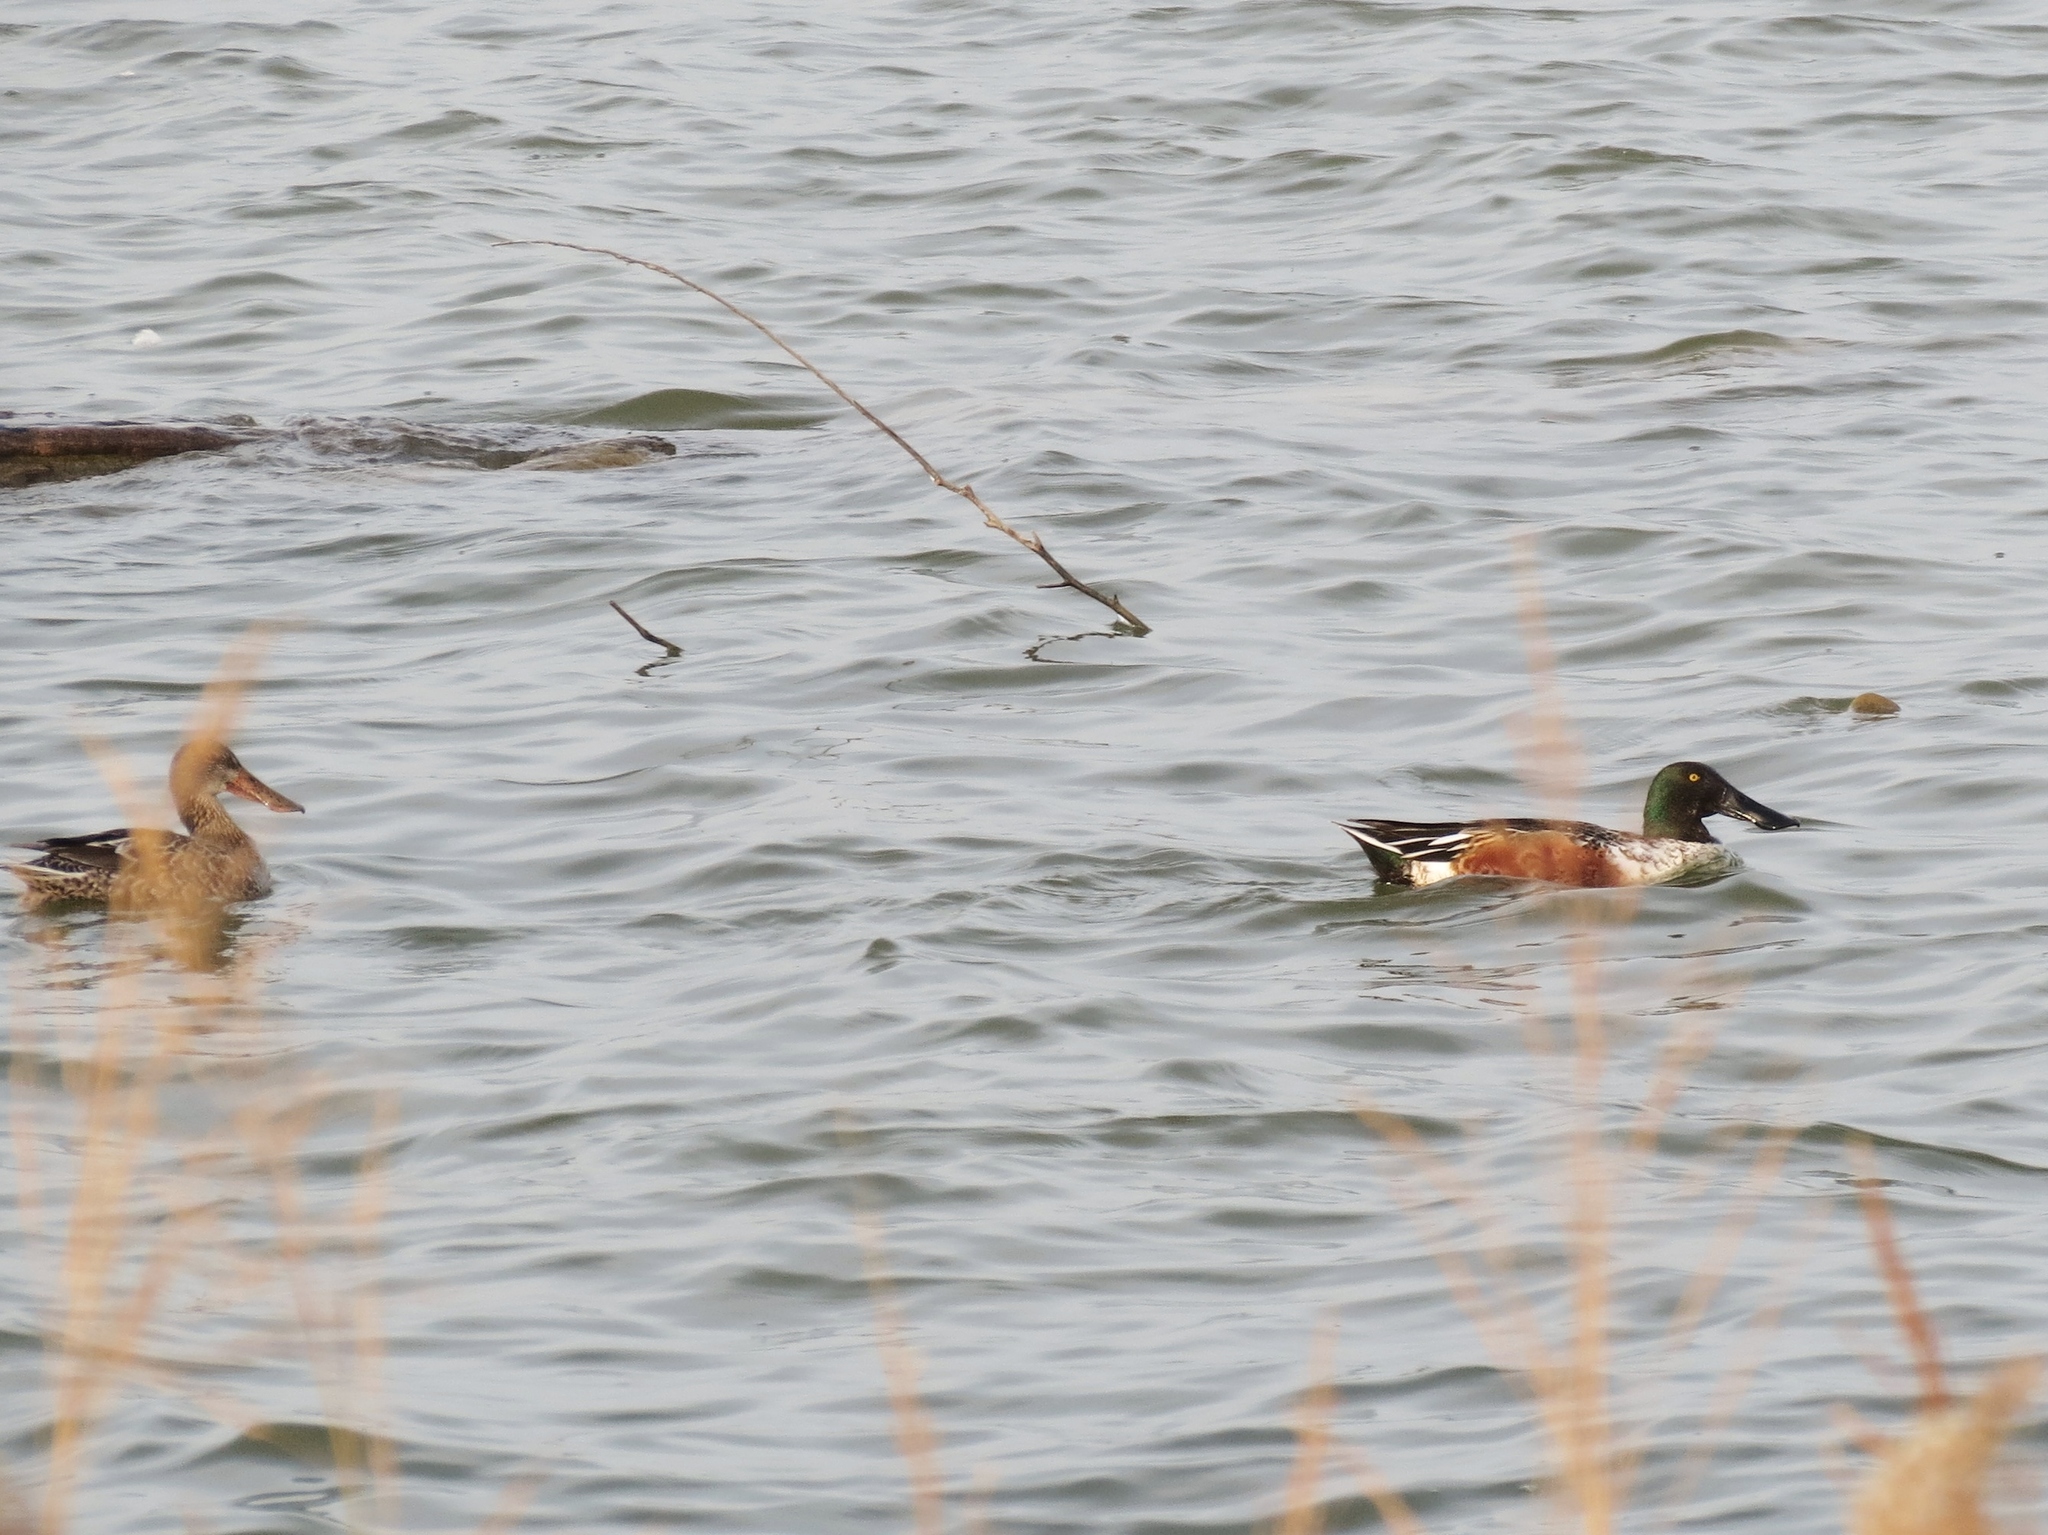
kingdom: Animalia
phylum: Chordata
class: Aves
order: Anseriformes
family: Anatidae
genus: Spatula
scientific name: Spatula clypeata
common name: Northern shoveler
